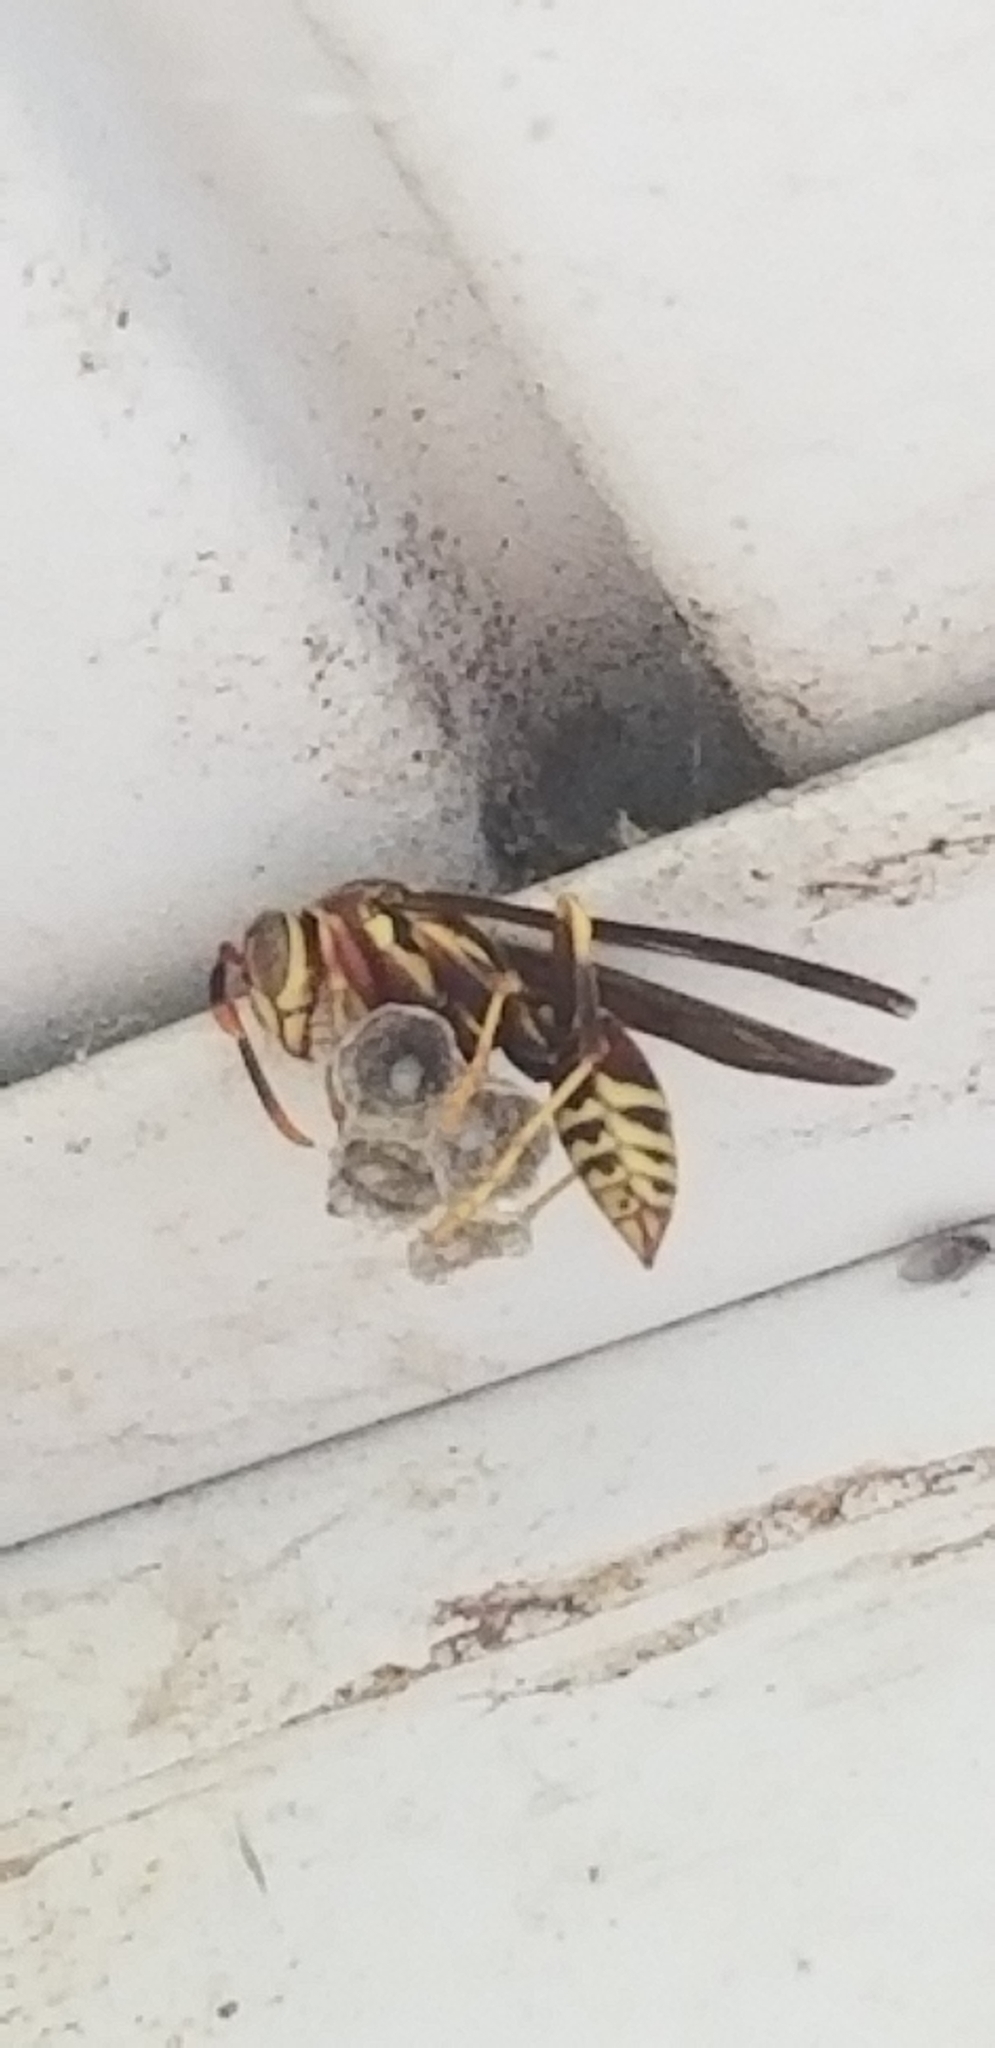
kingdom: Animalia
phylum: Arthropoda
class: Insecta
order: Hymenoptera
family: Eumenidae
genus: Polistes
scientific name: Polistes exclamans
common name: Paper wasp
